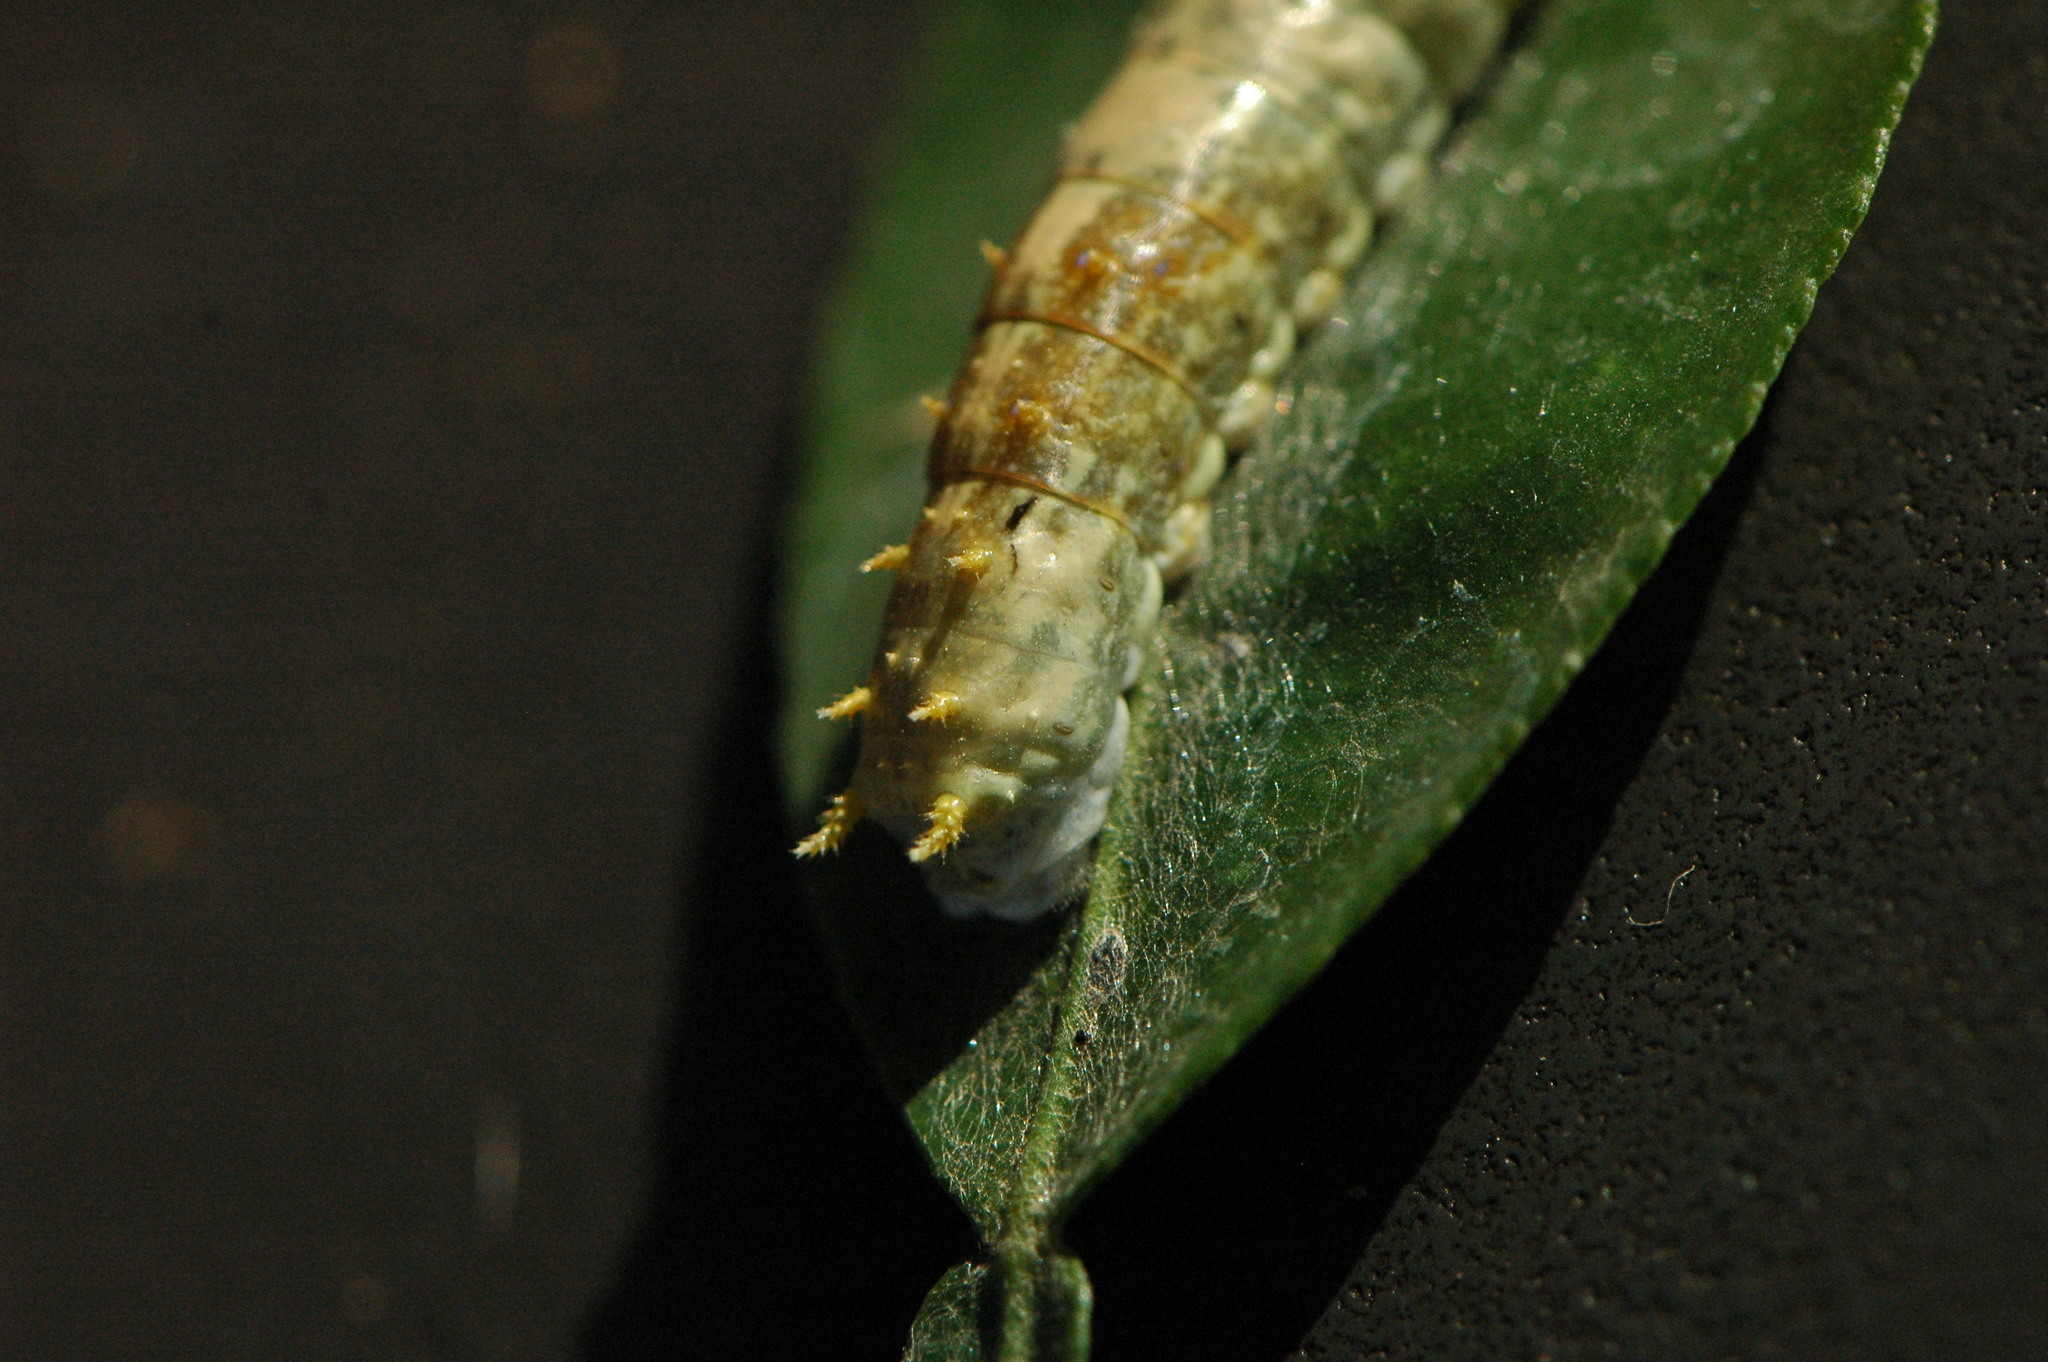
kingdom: Animalia
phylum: Arthropoda
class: Insecta
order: Lepidoptera
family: Papilionidae
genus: Papilio
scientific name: Papilio demodocus
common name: Christmas butterfly
